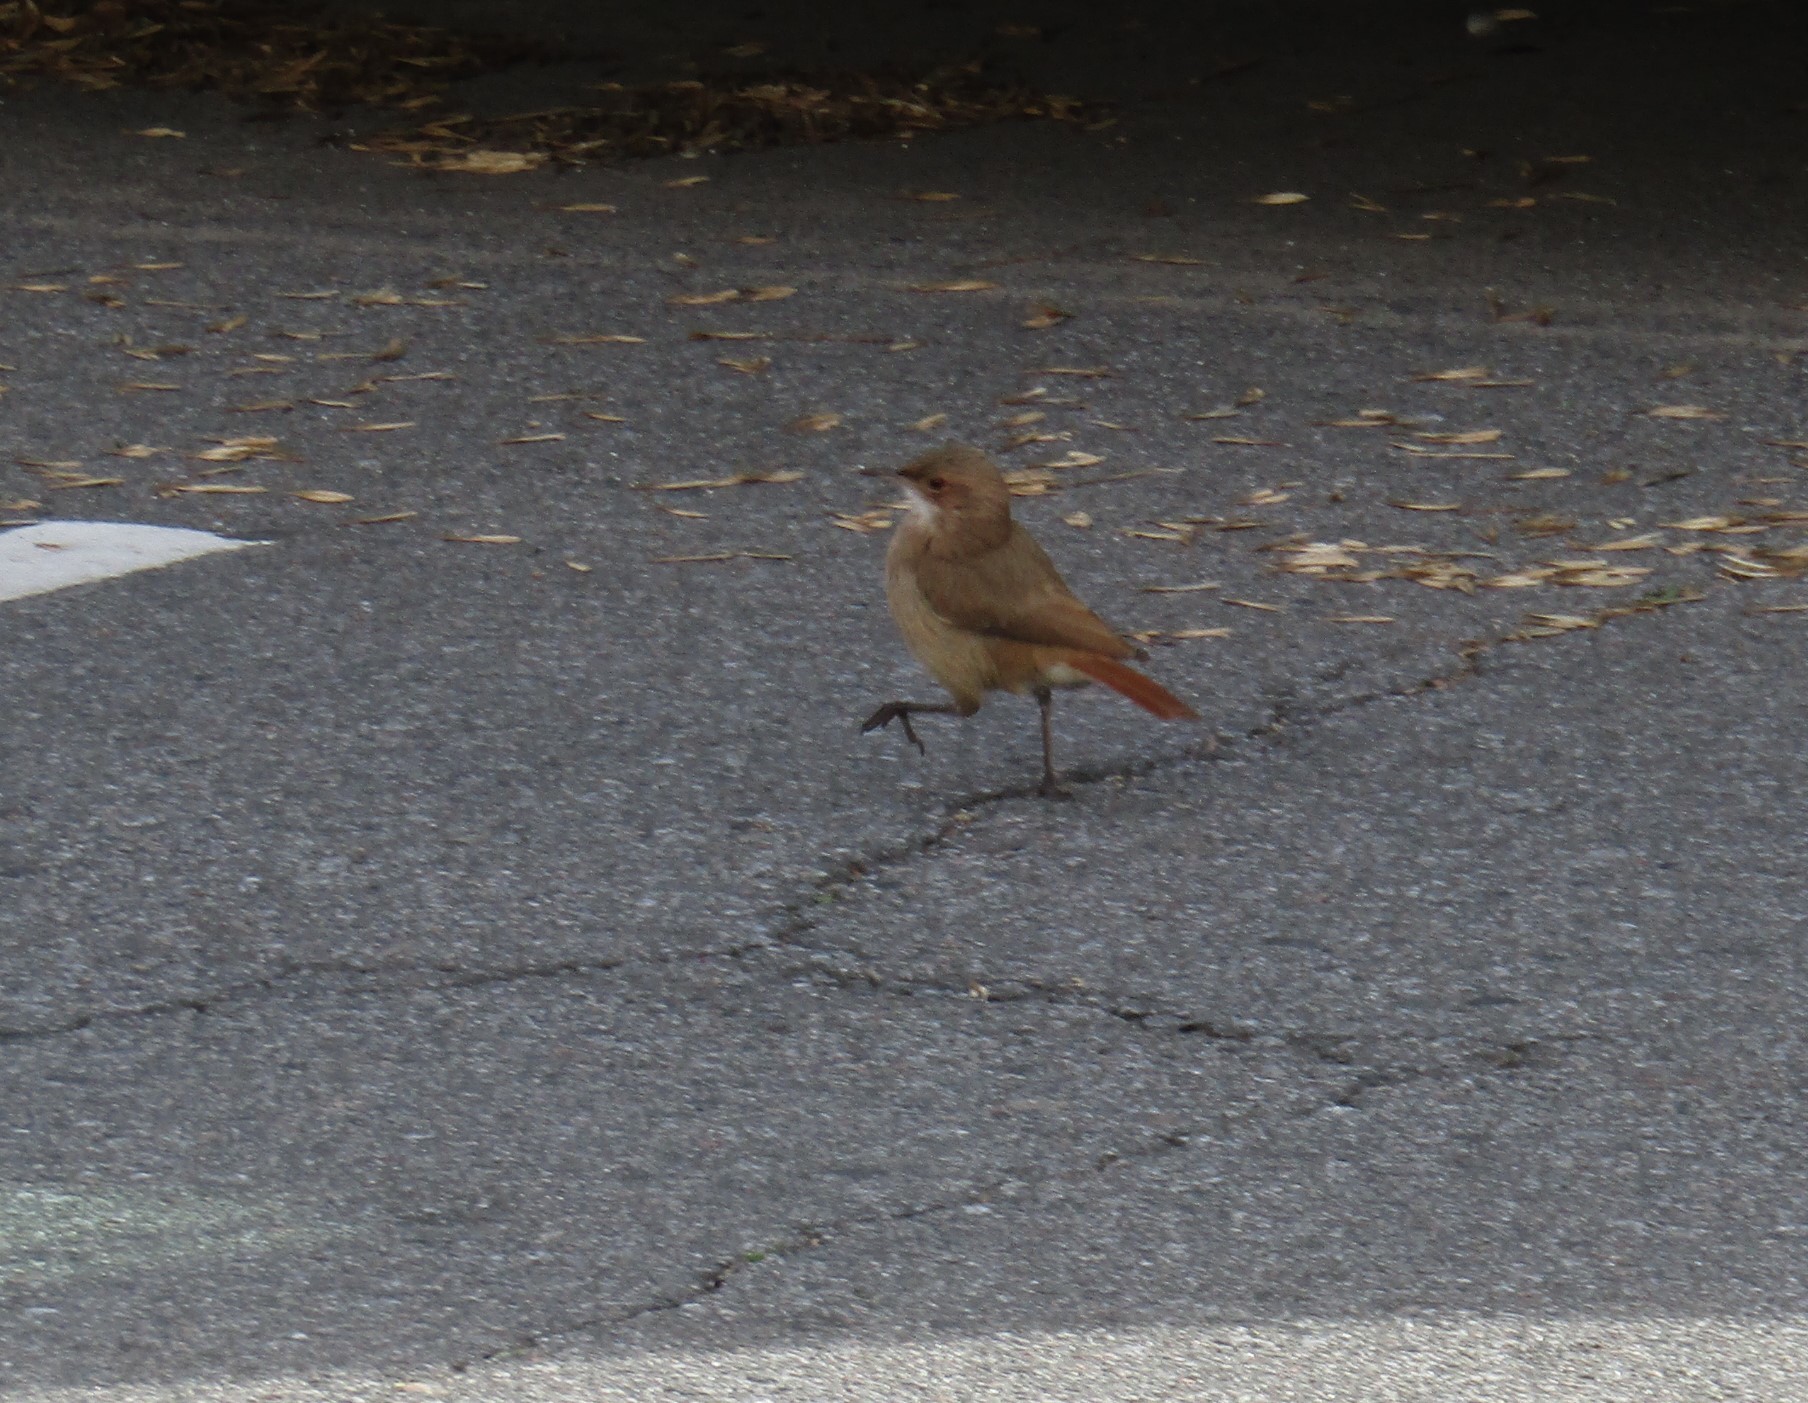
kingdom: Animalia
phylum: Chordata
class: Aves
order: Passeriformes
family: Furnariidae
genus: Furnarius
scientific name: Furnarius rufus
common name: Rufous hornero
